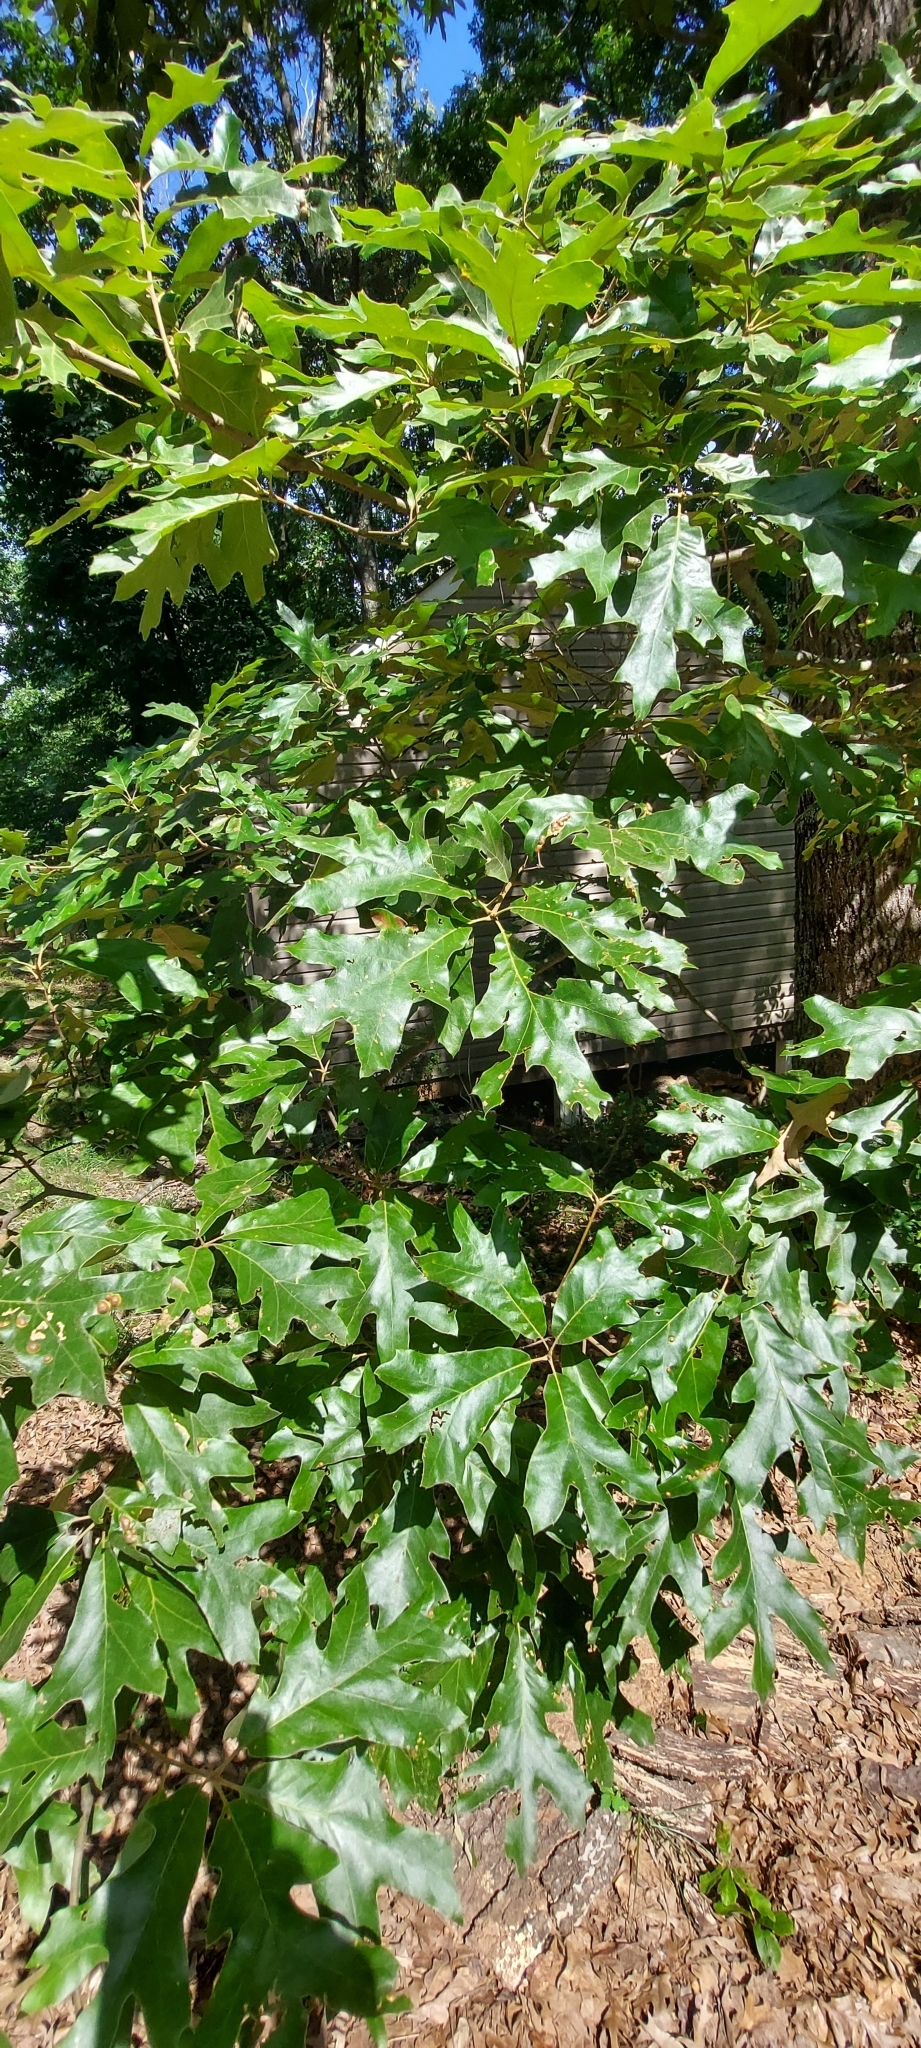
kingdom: Plantae
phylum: Tracheophyta
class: Magnoliopsida
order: Fagales
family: Fagaceae
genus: Quercus
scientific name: Quercus falcata
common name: Southern red oak
